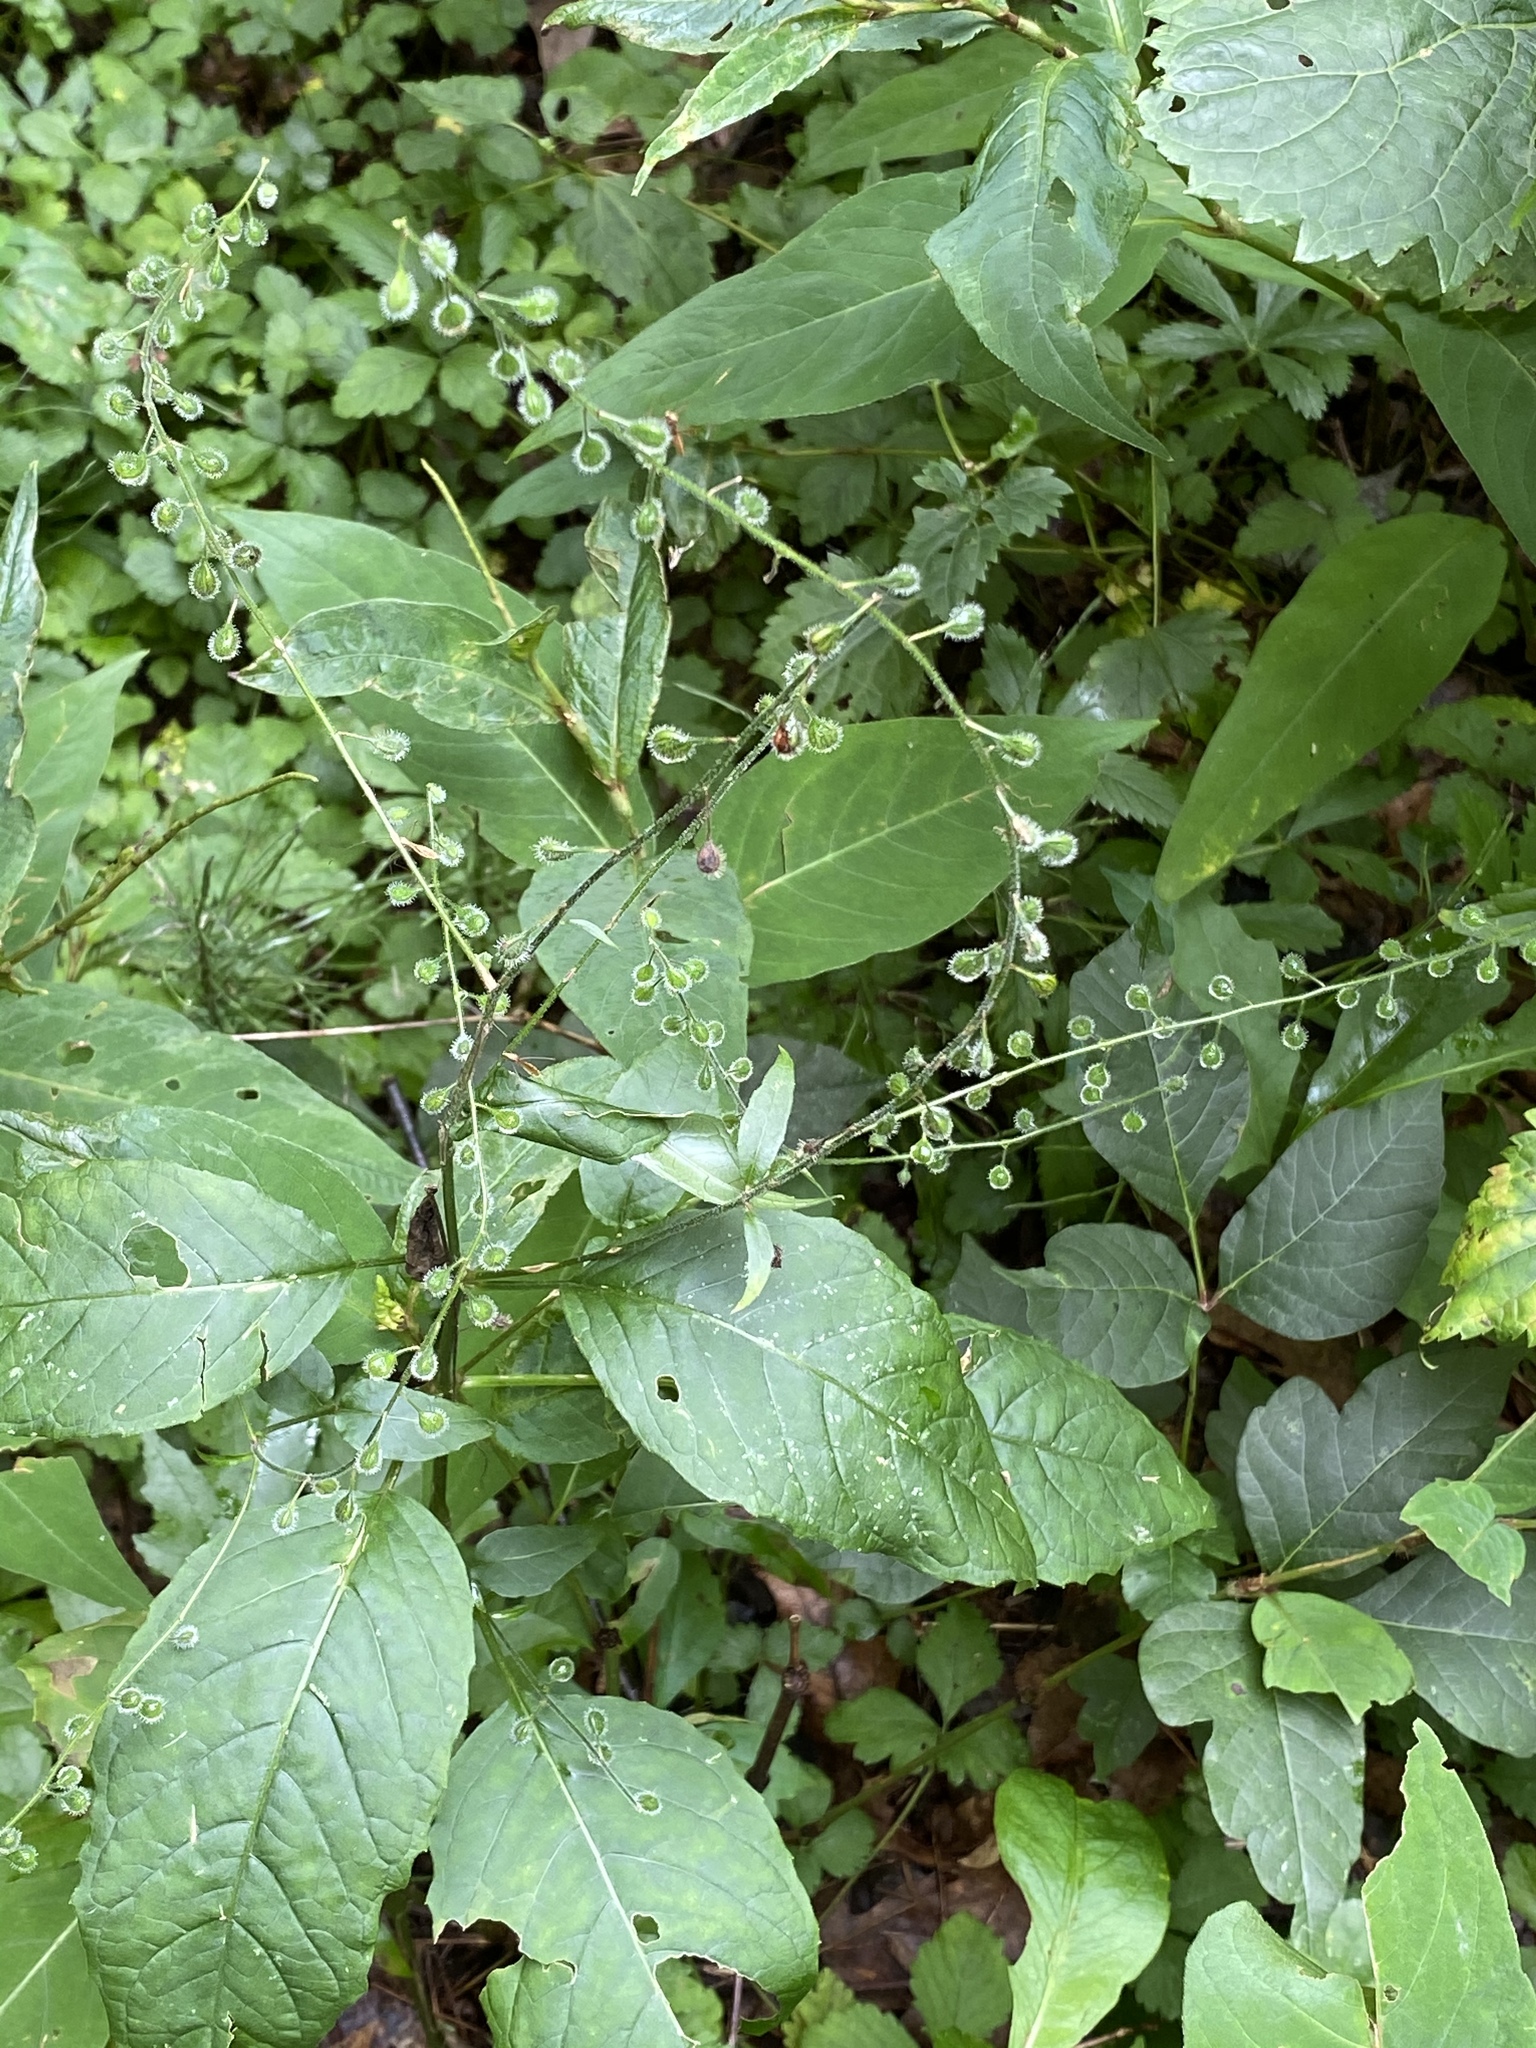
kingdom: Plantae
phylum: Tracheophyta
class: Magnoliopsida
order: Myrtales
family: Onagraceae
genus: Circaea
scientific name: Circaea canadensis
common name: Broad-leaved enchanter's nightshade
